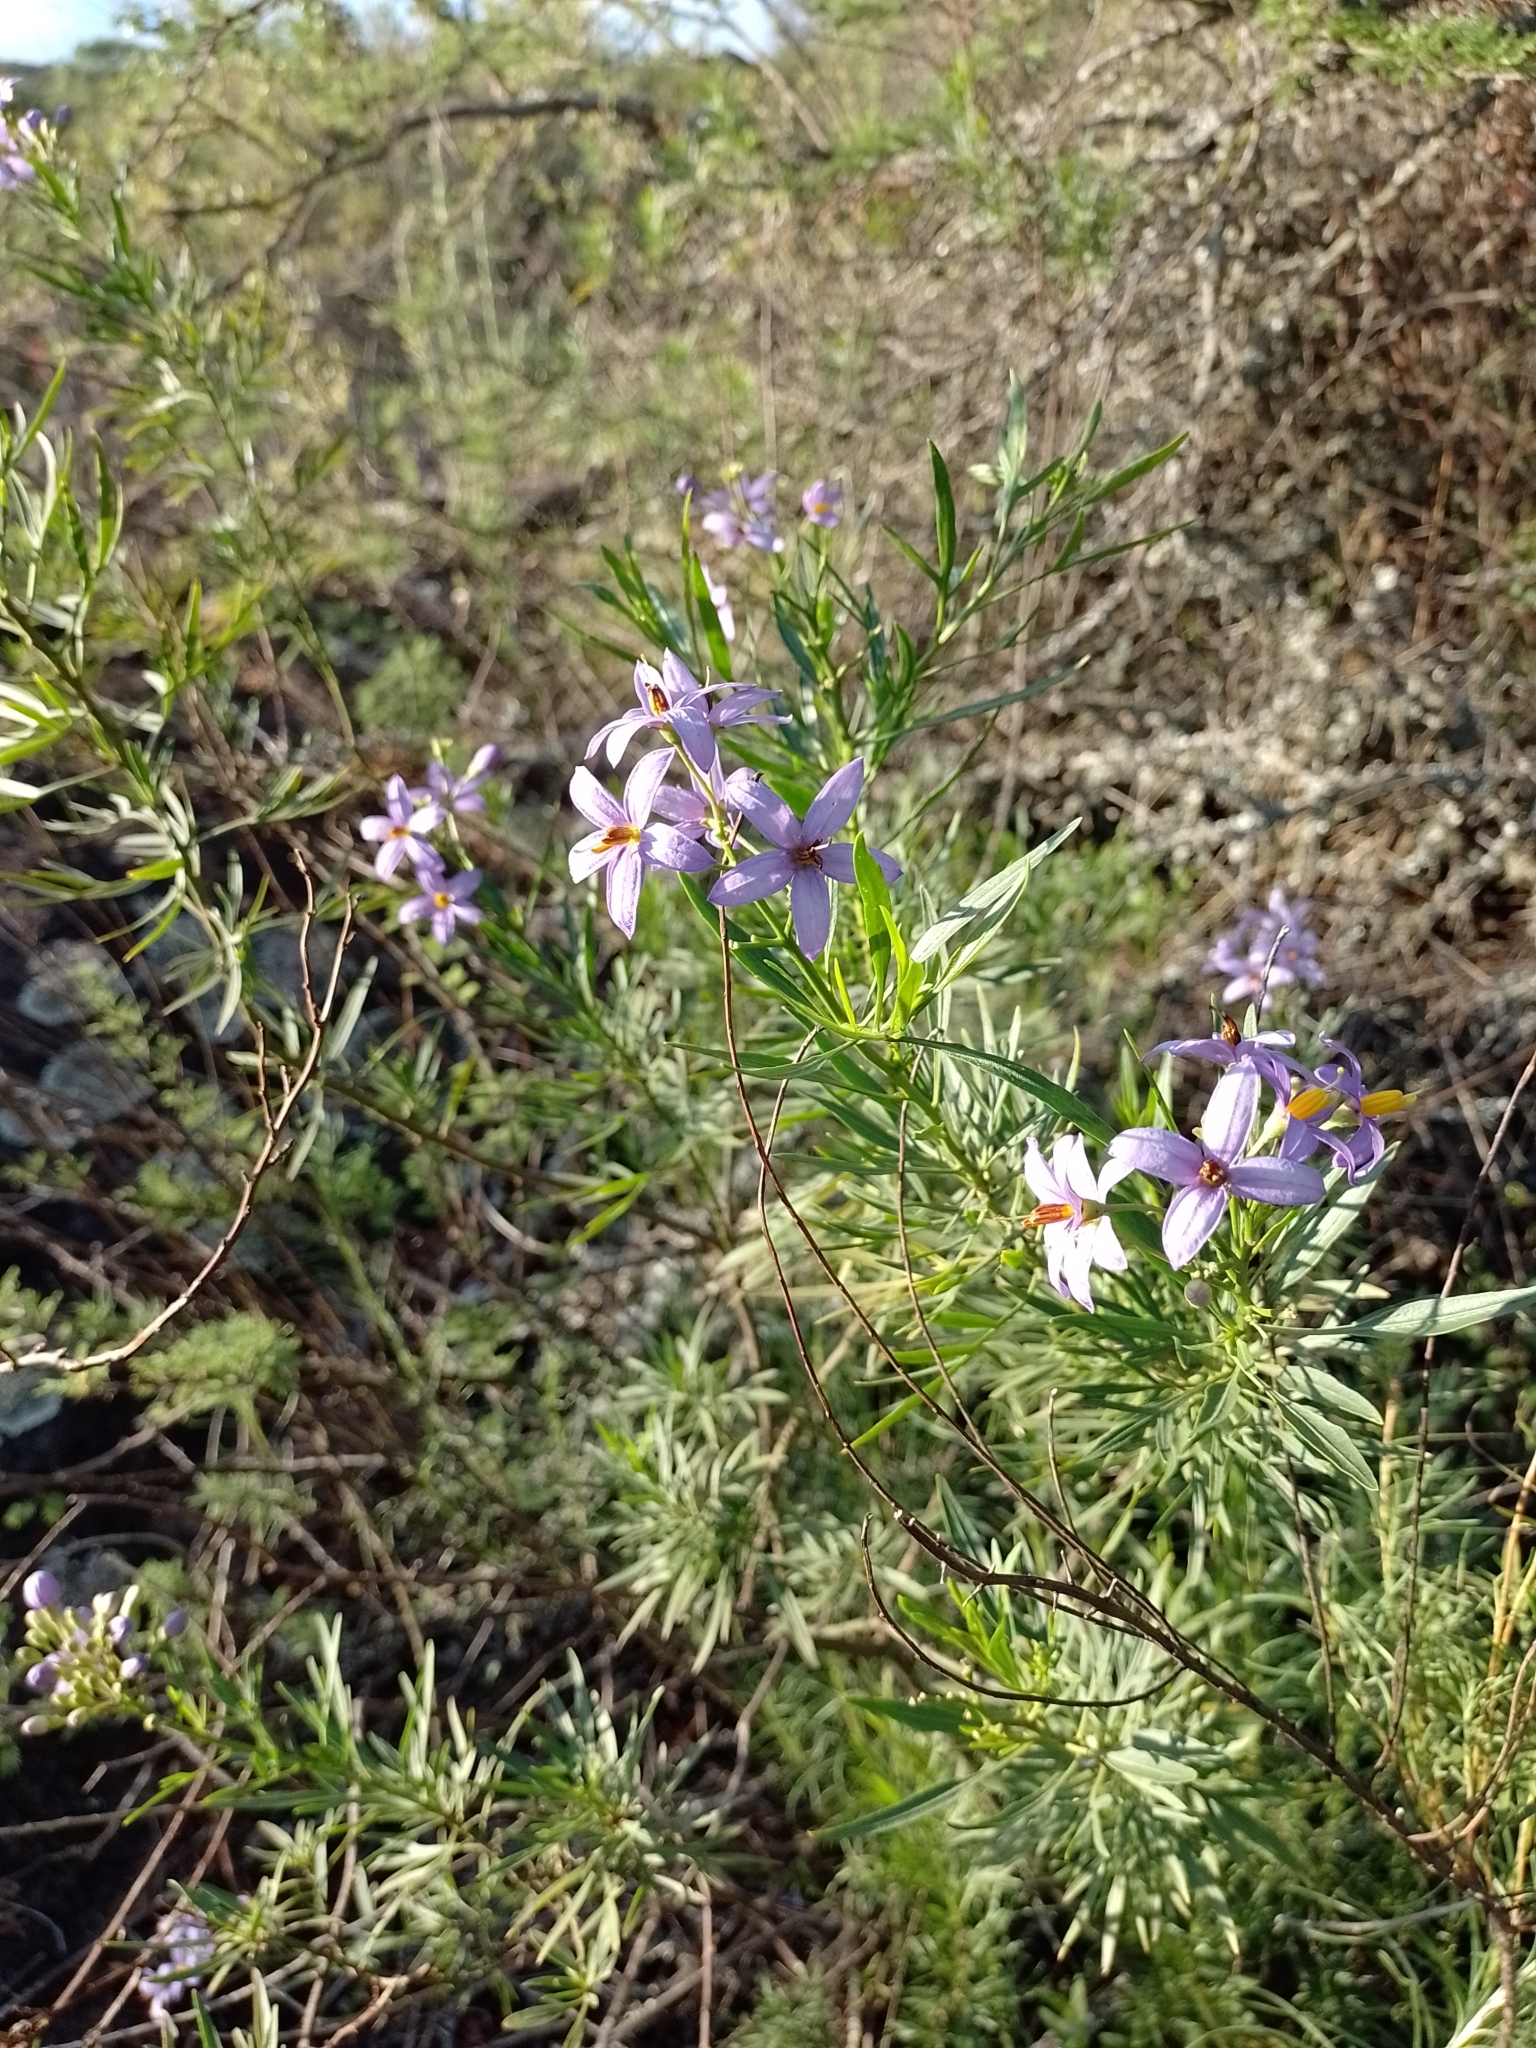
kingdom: Plantae
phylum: Tracheophyta
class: Magnoliopsida
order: Solanales
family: Solanaceae
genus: Solanum
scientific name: Solanum angustifidum
